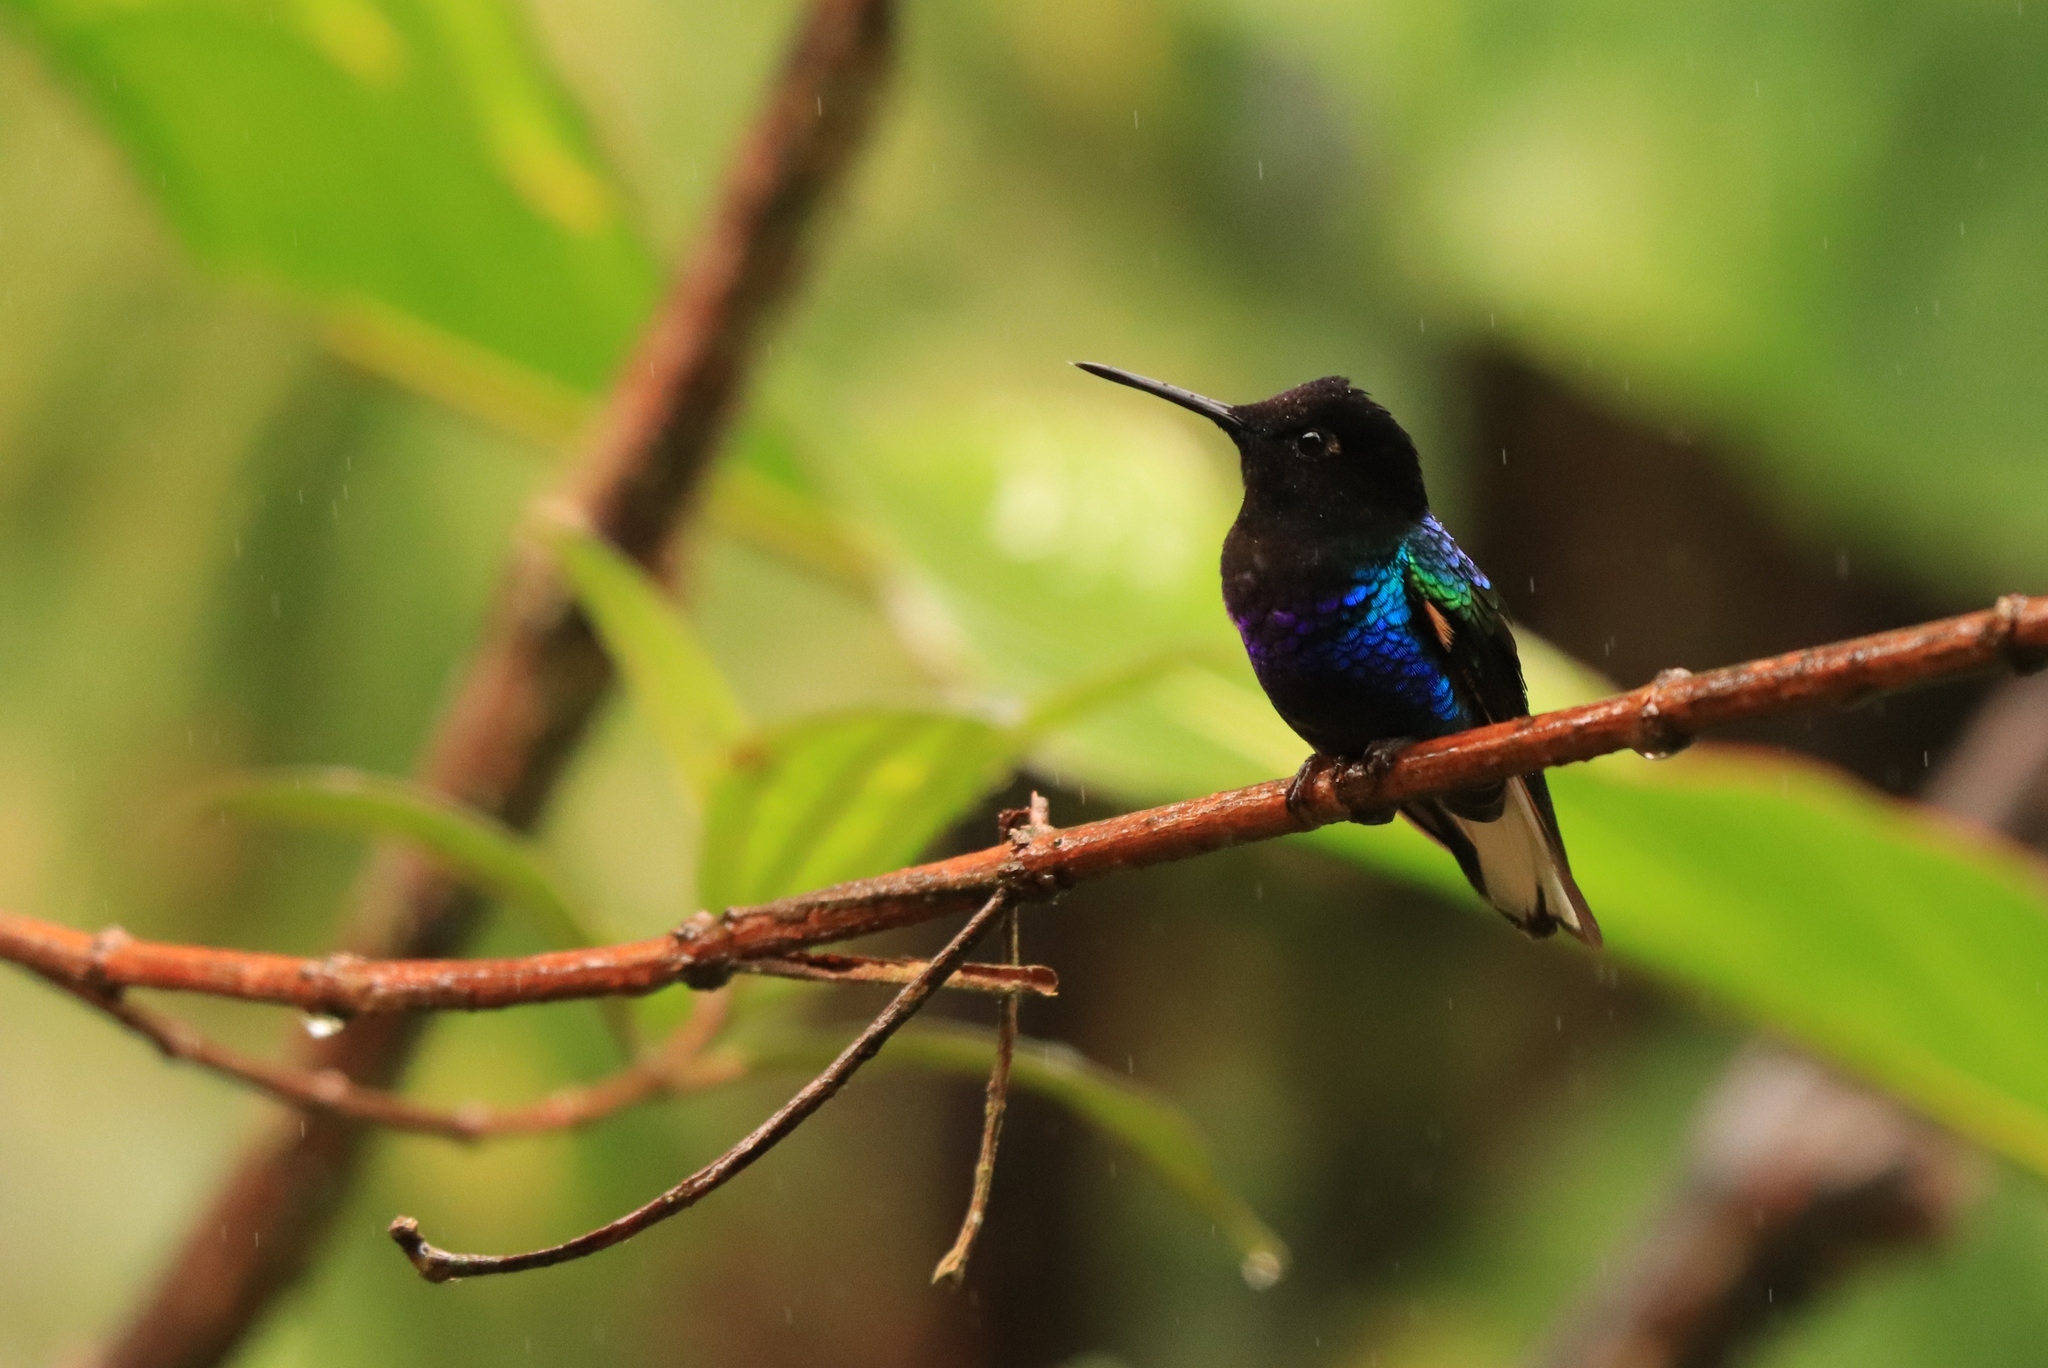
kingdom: Animalia
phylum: Chordata
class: Aves
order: Apodiformes
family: Trochilidae
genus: Boissonneaua
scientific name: Boissonneaua jardini
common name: Velvet-purple coronet
